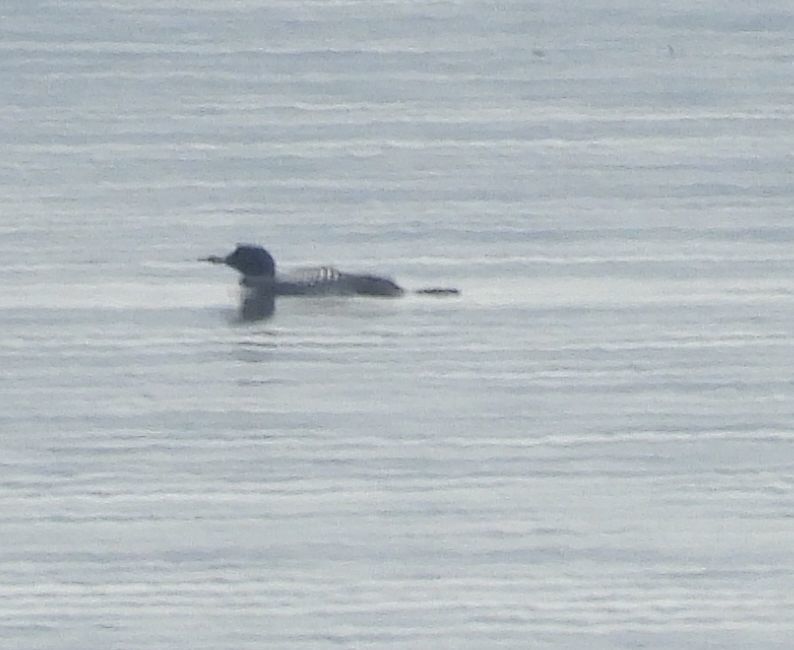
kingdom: Animalia
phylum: Chordata
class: Aves
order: Gaviiformes
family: Gaviidae
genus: Gavia
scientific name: Gavia immer
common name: Common loon
